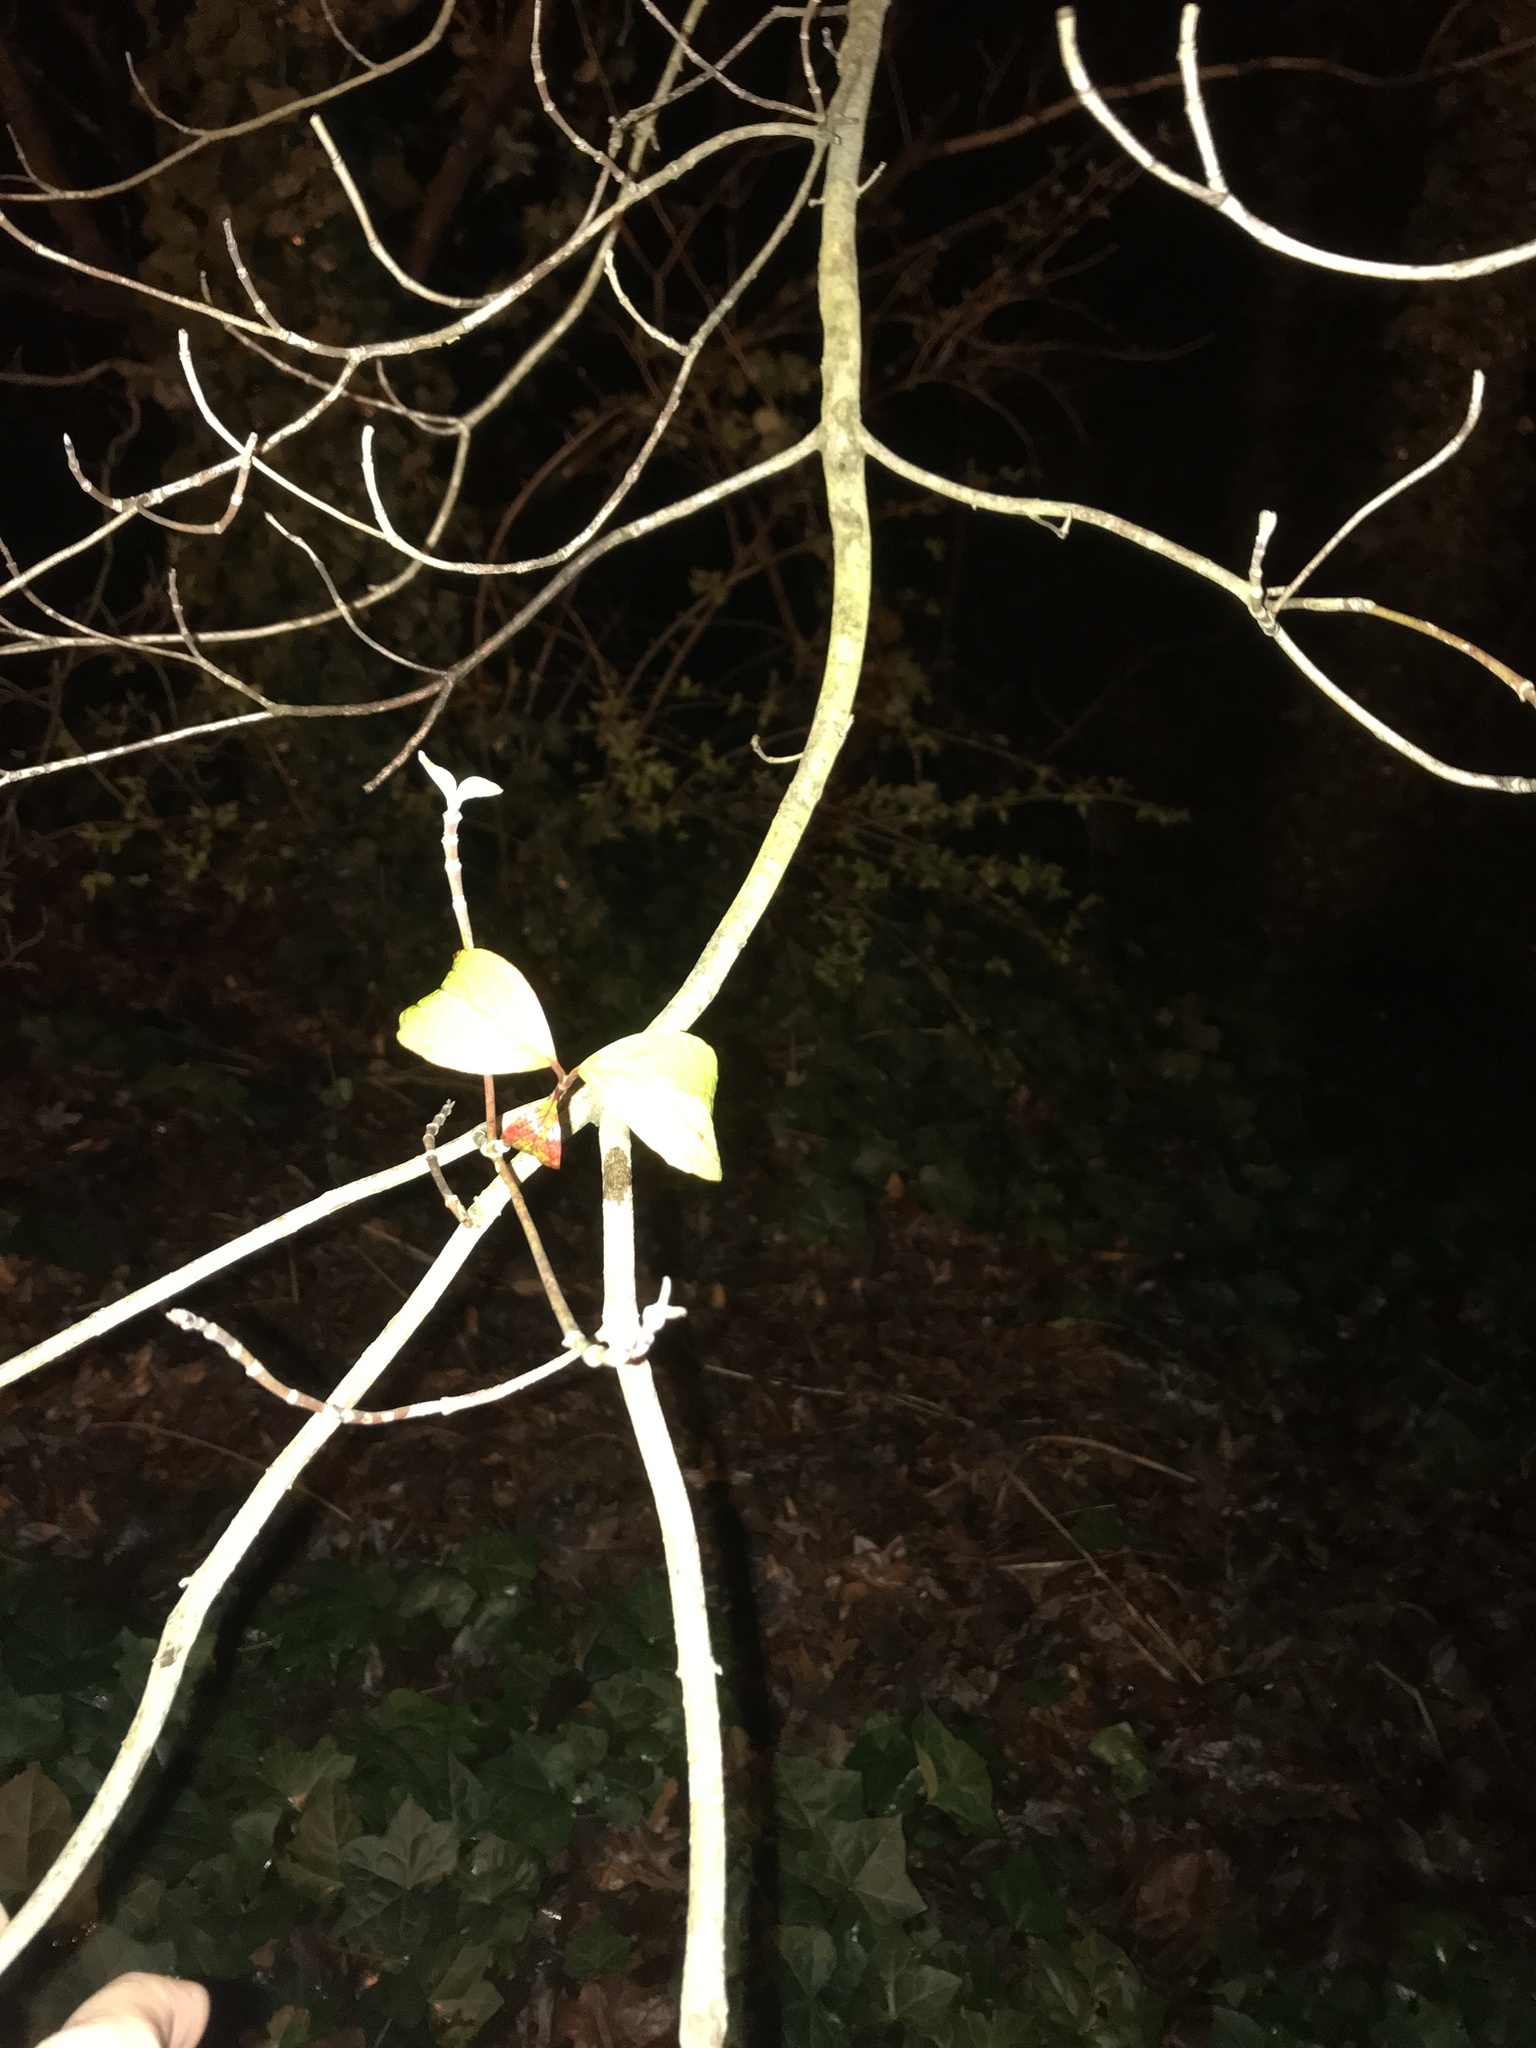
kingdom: Plantae
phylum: Tracheophyta
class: Magnoliopsida
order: Cornales
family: Cornaceae
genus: Cornus
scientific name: Cornus florida
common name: Flowering dogwood
